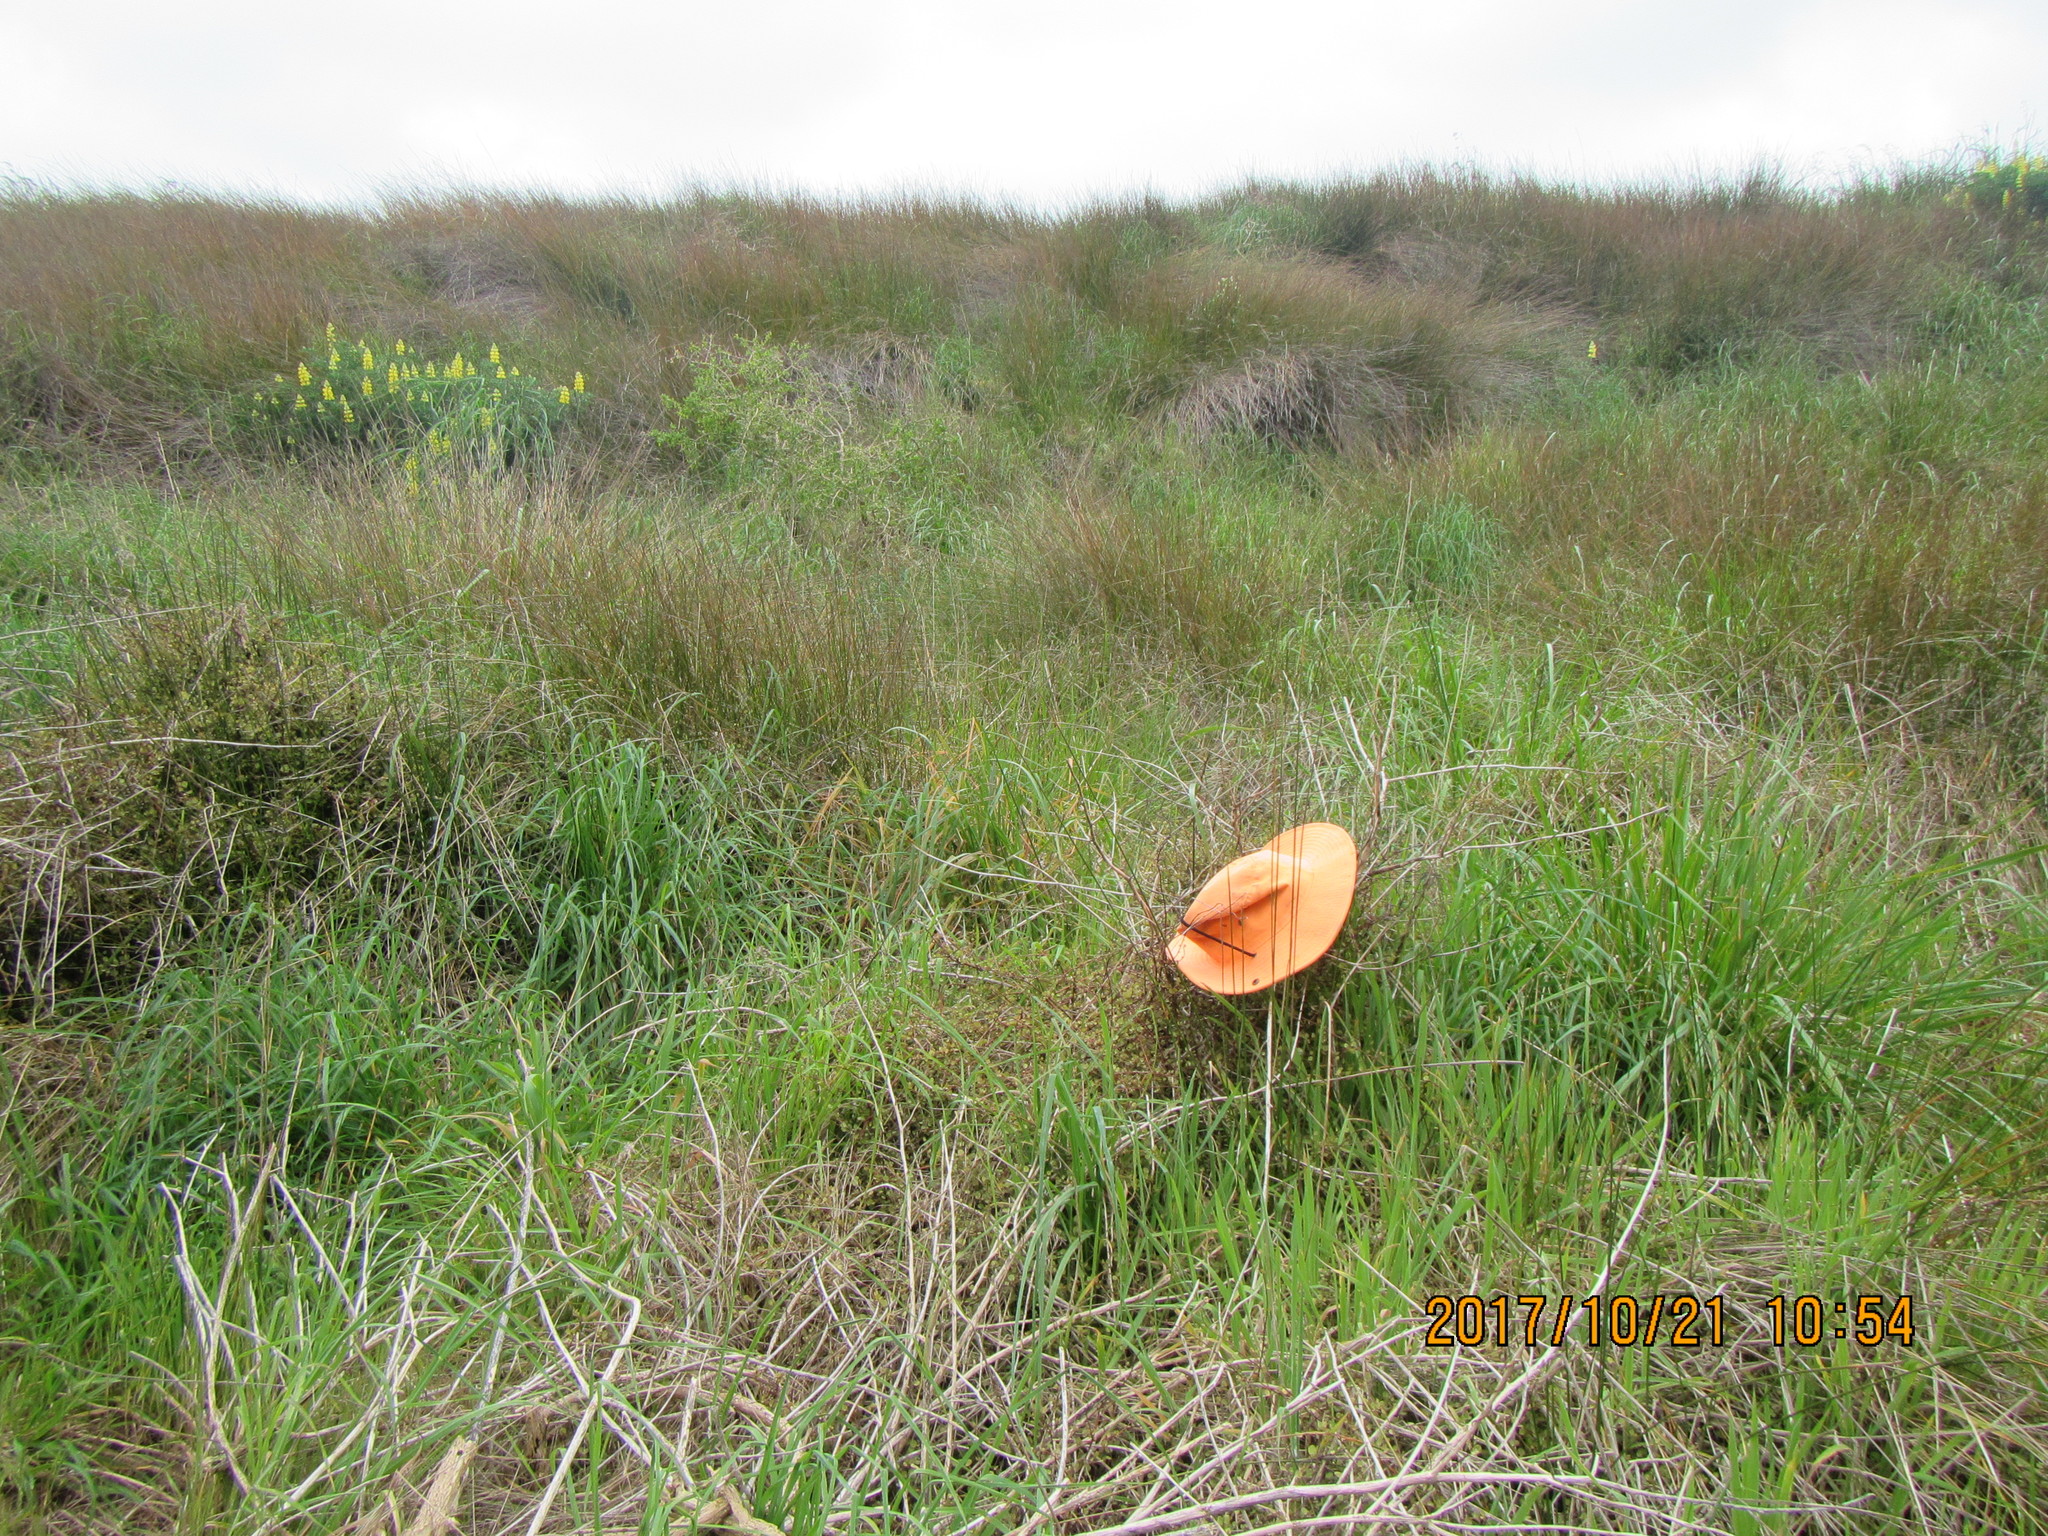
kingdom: Plantae
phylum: Tracheophyta
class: Magnoliopsida
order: Caryophyllales
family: Polygonaceae
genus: Muehlenbeckia
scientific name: Muehlenbeckia complexa
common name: Wireplant
